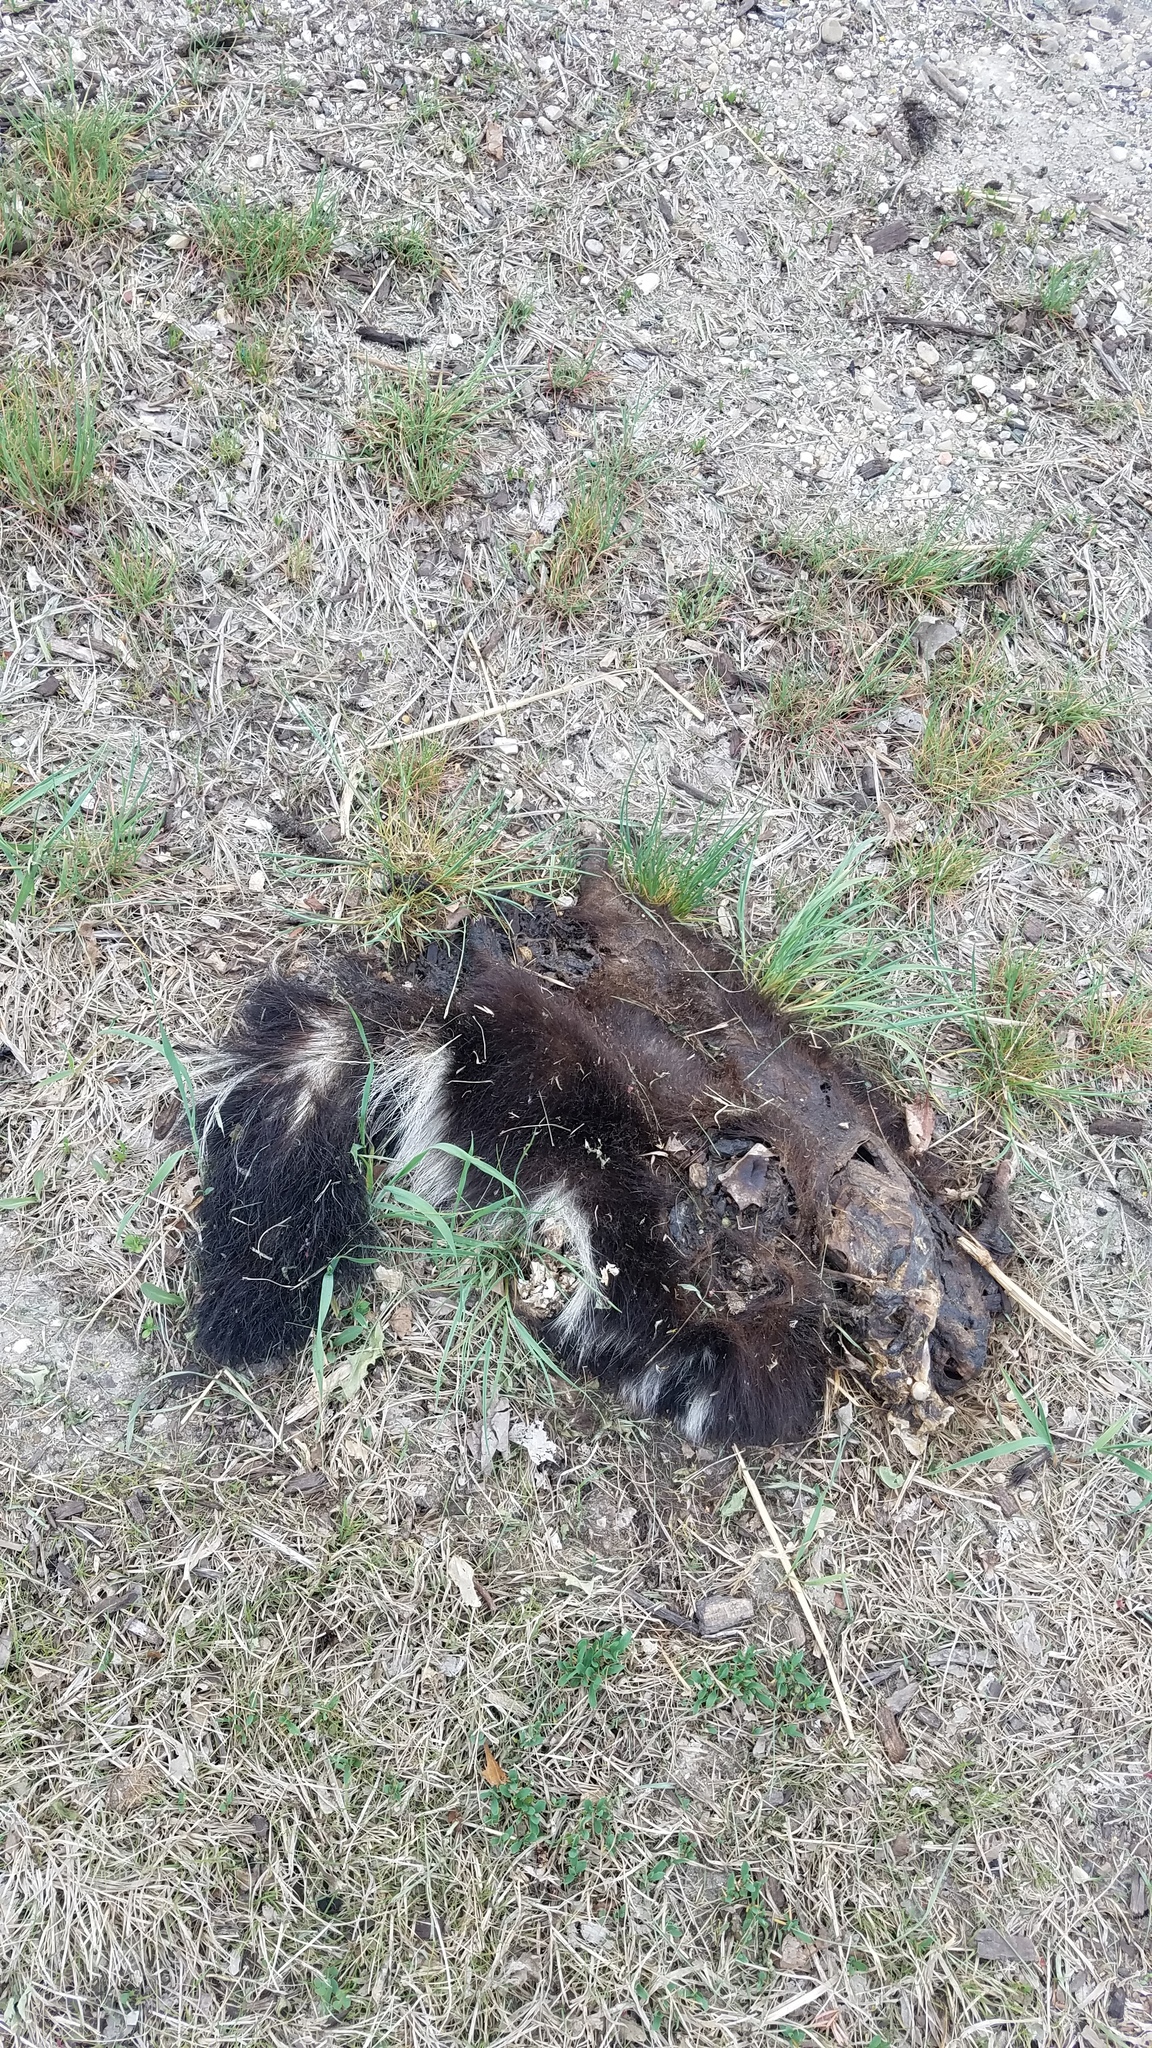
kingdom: Animalia
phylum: Chordata
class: Mammalia
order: Carnivora
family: Mephitidae
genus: Mephitis
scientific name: Mephitis mephitis
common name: Striped skunk
